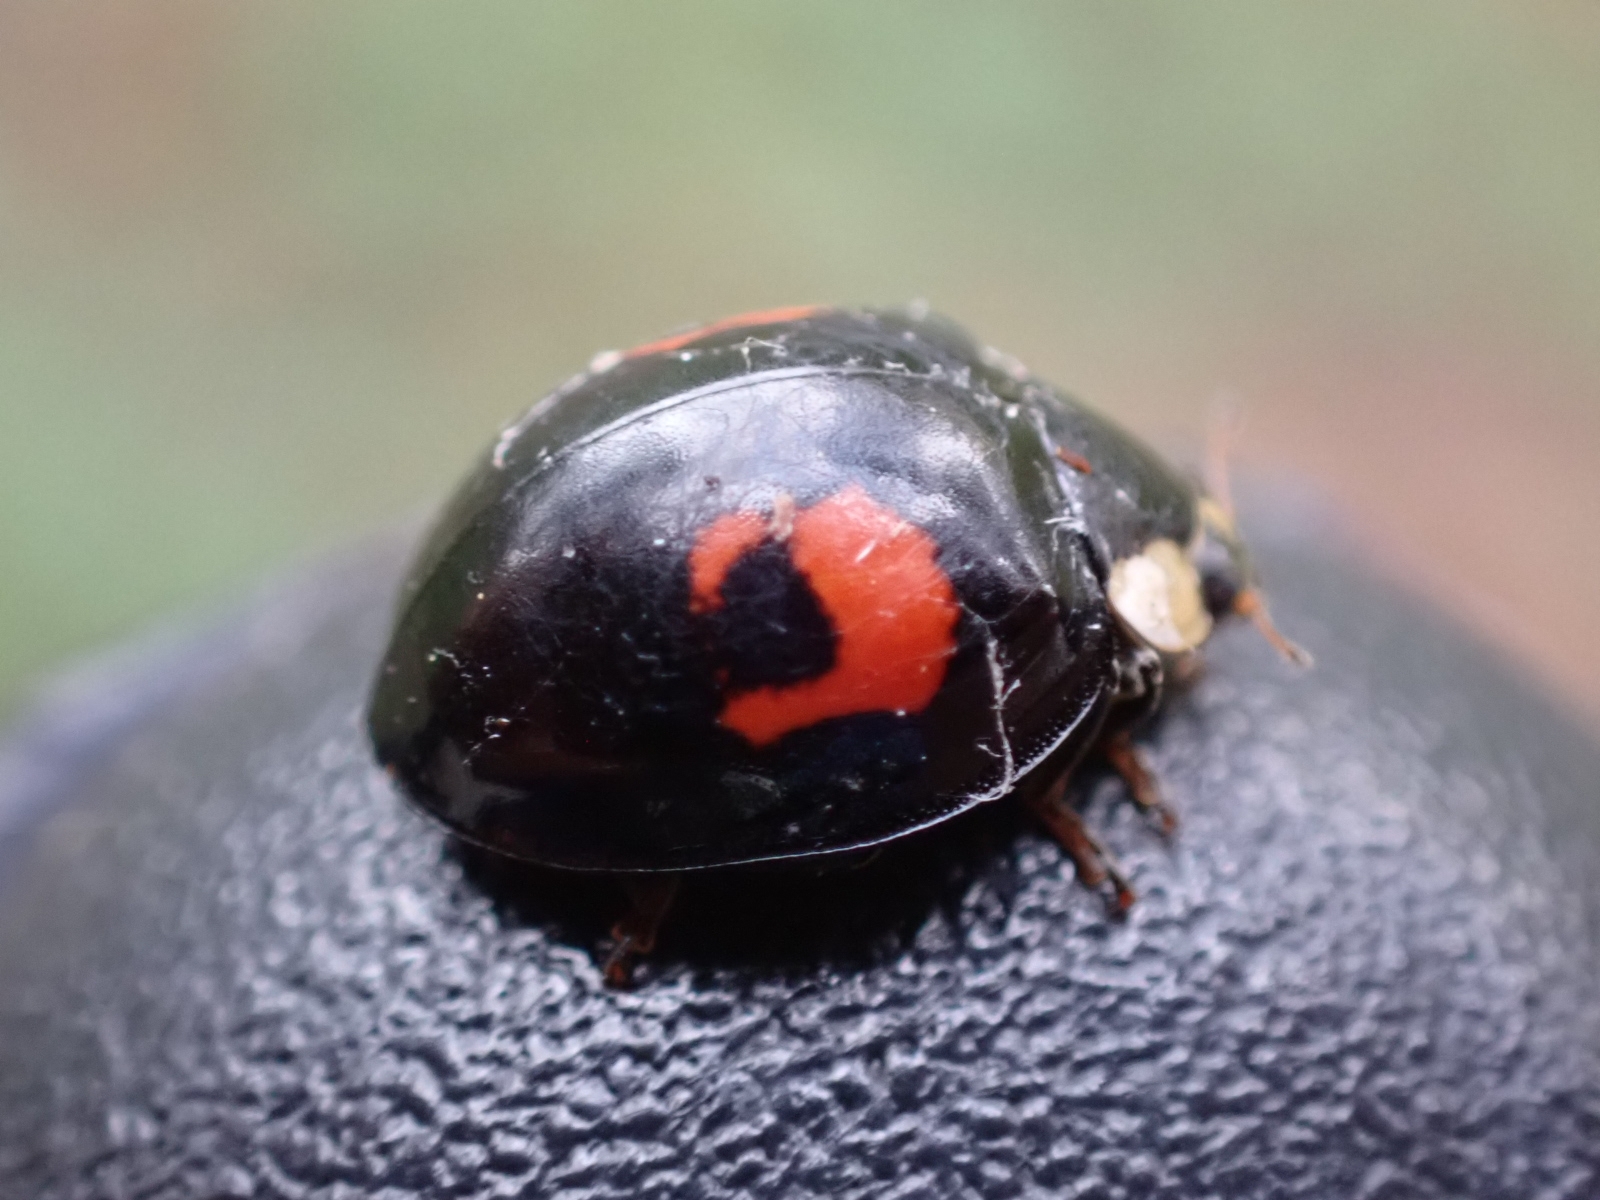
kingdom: Animalia
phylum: Arthropoda
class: Insecta
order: Coleoptera
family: Coccinellidae
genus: Harmonia
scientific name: Harmonia axyridis
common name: Harlequin ladybird
